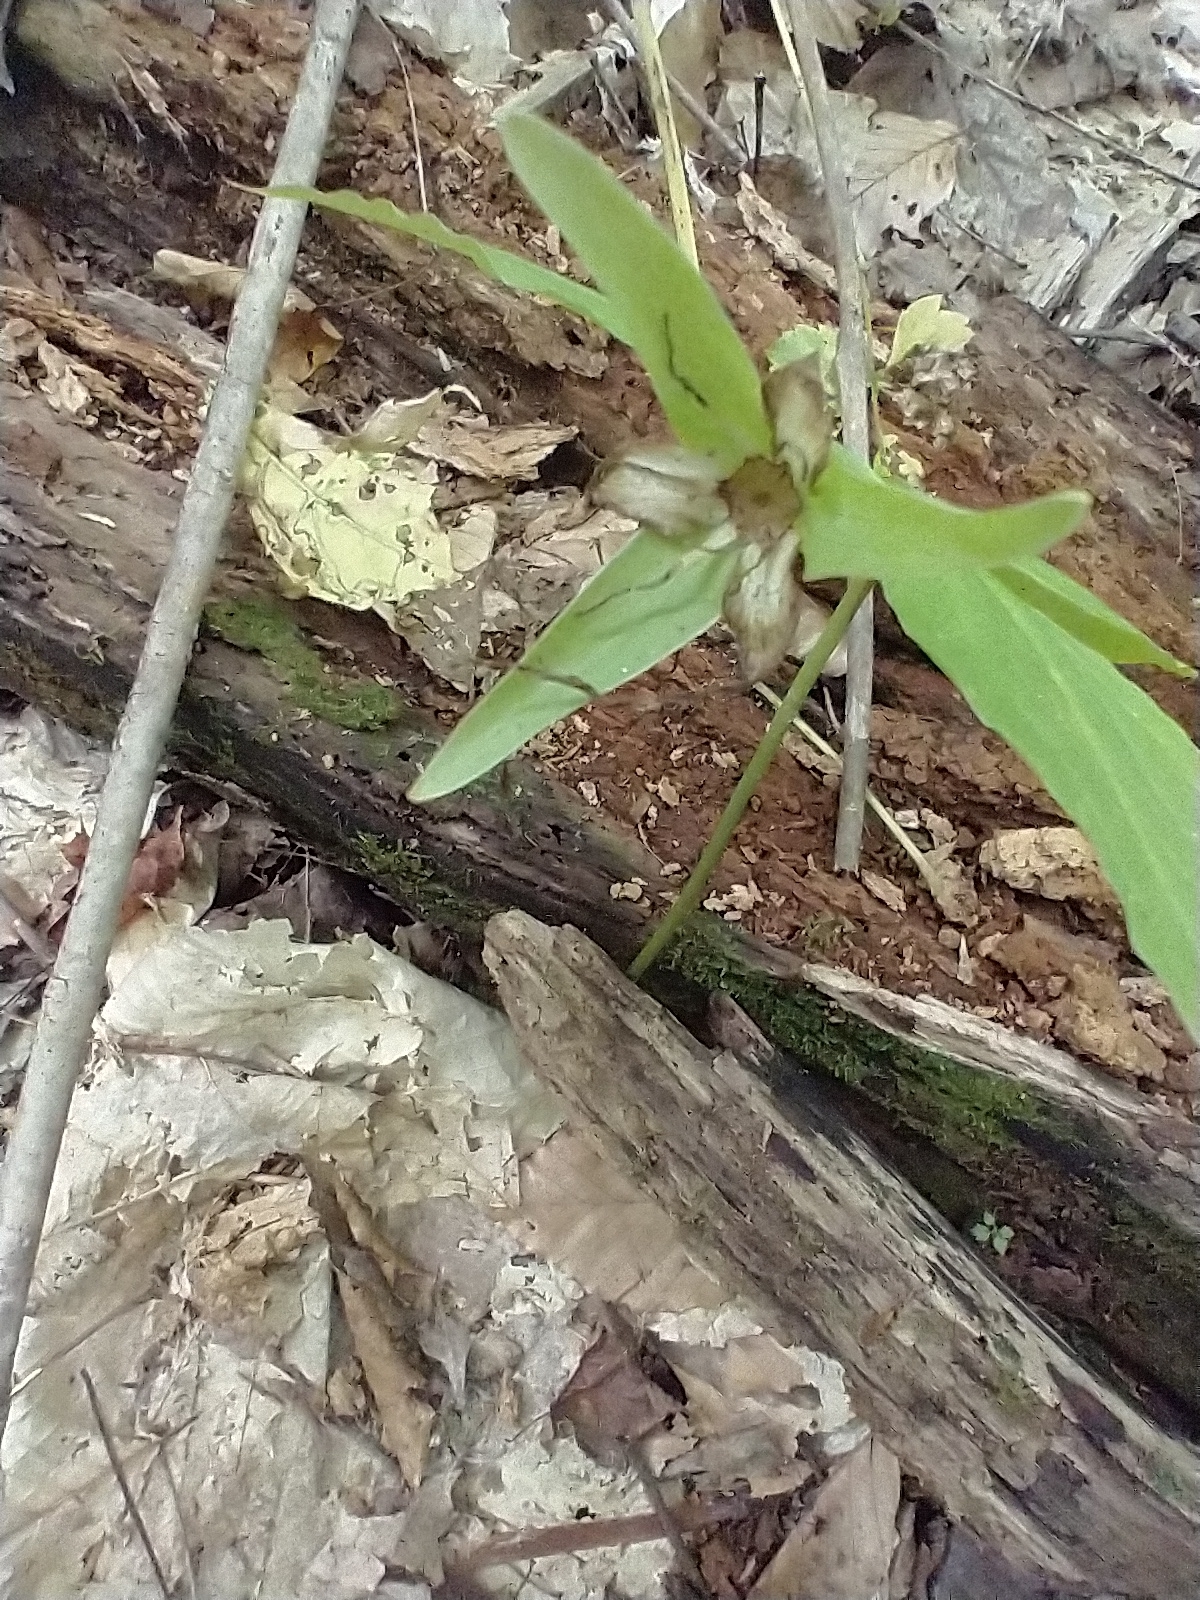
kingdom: Plantae
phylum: Tracheophyta
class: Liliopsida
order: Liliales
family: Melanthiaceae
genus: Trillium
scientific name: Trillium grandiflorum
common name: Great white trillium
